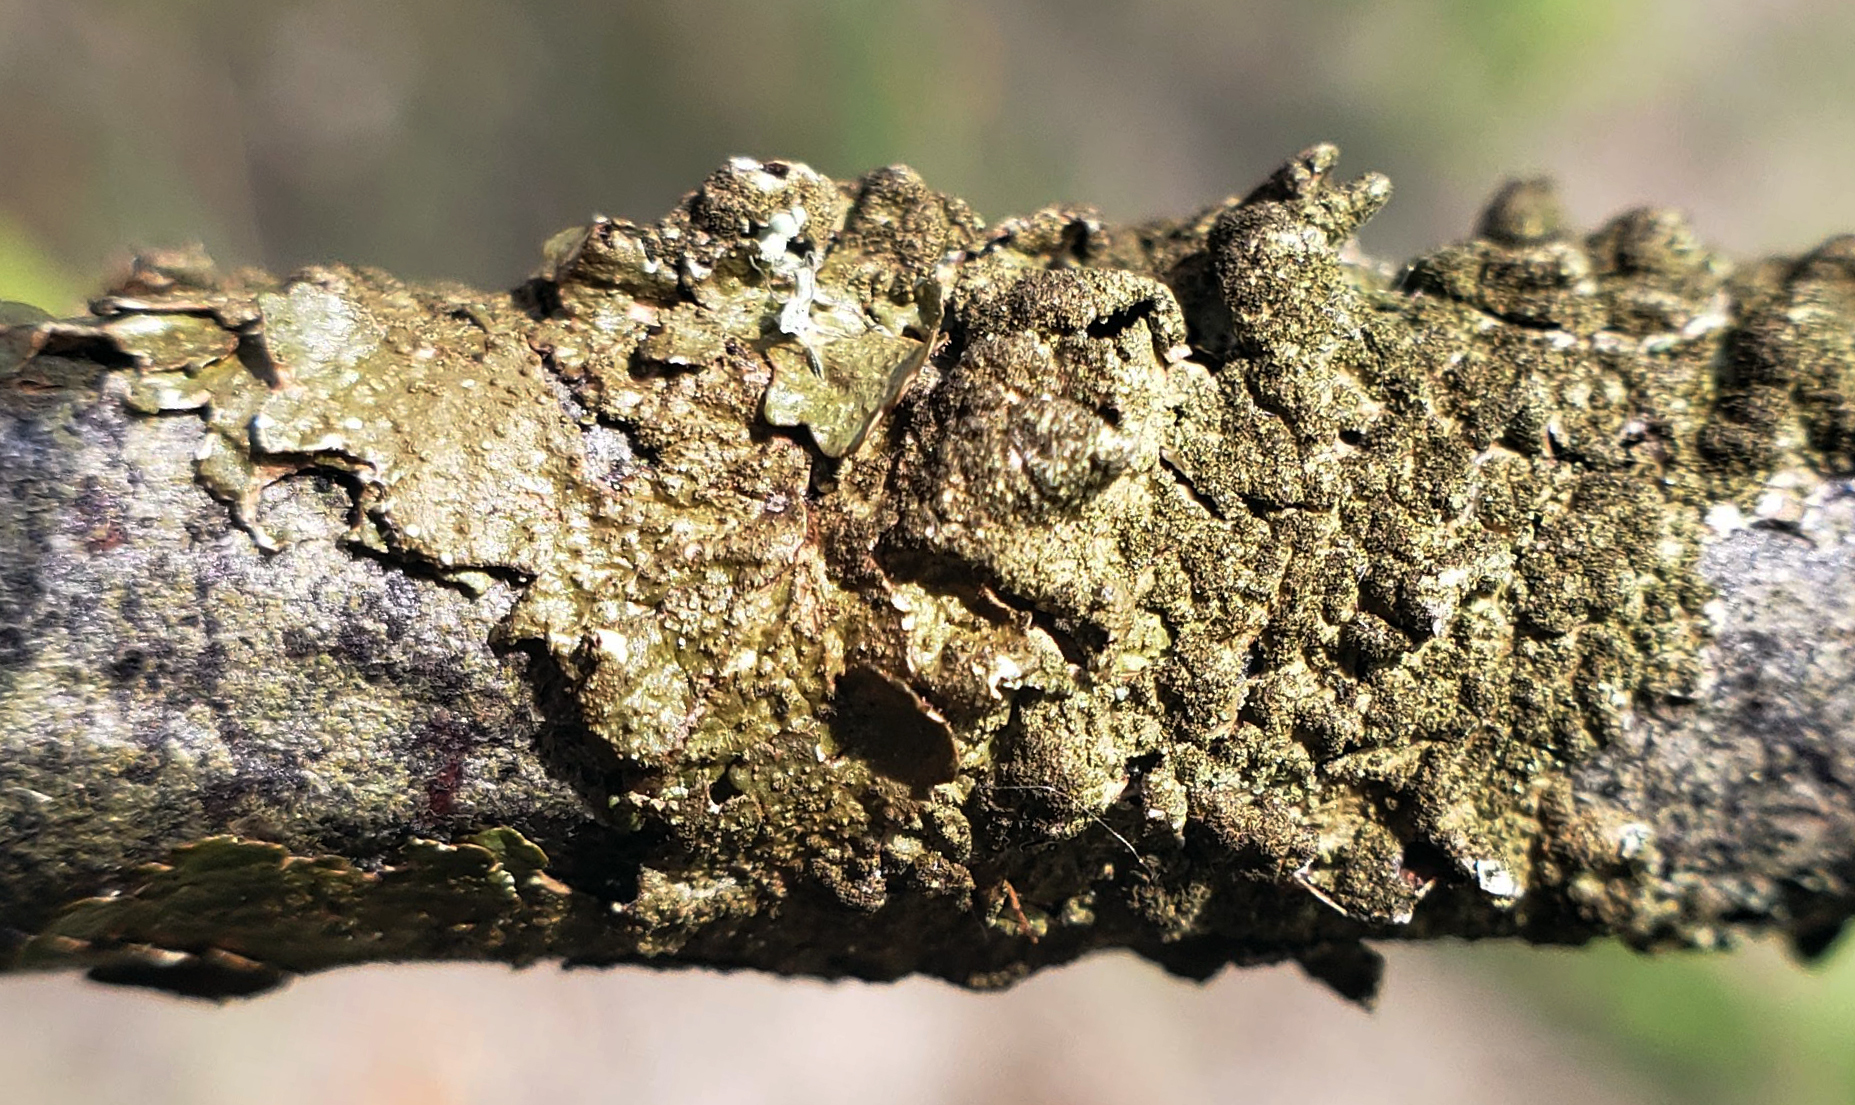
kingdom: Fungi
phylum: Ascomycota
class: Lecanoromycetes
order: Lecanorales
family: Parmeliaceae
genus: Melanelixia
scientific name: Melanelixia subaurifera
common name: Abraded camouflage lichen
